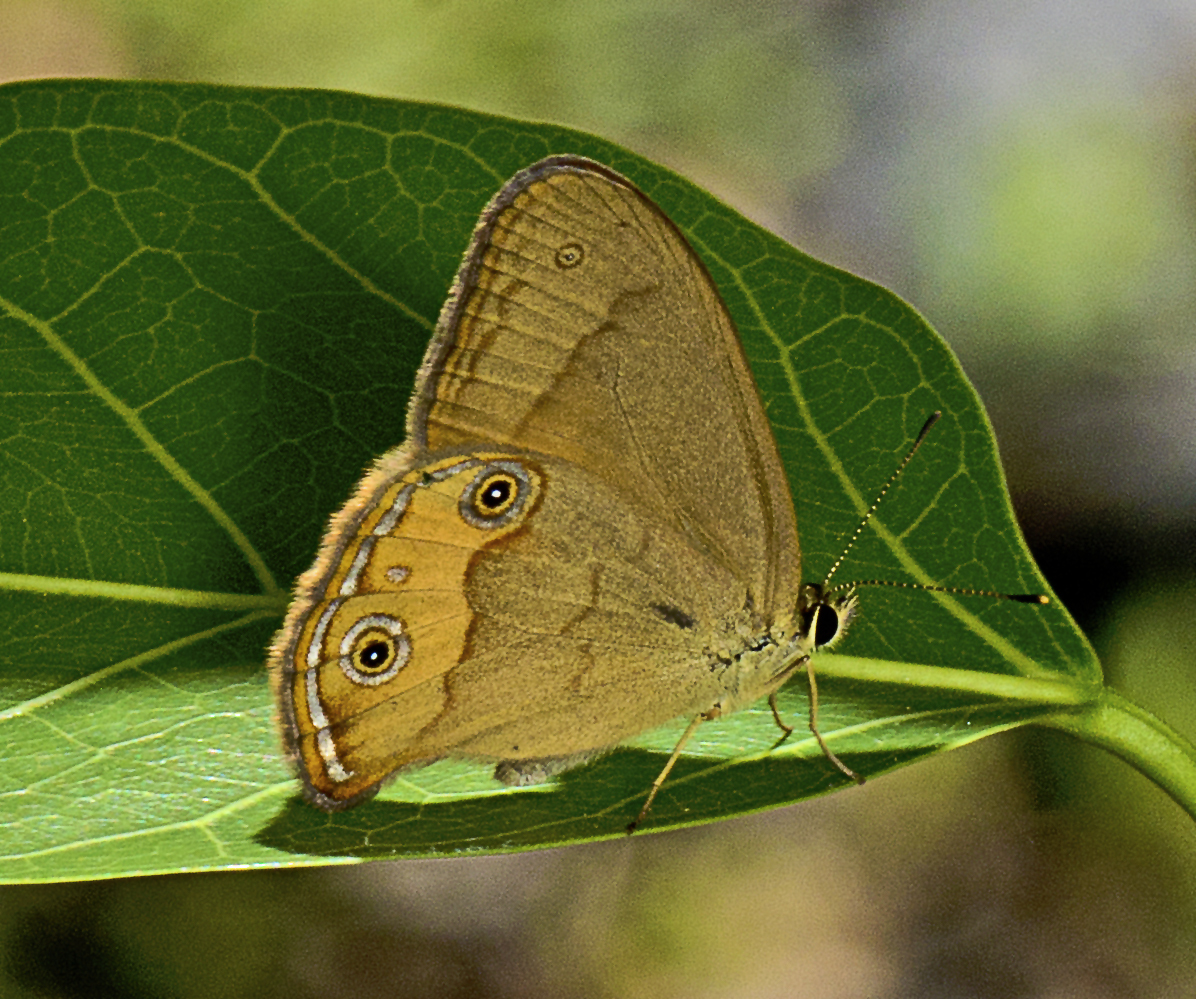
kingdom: Animalia
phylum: Arthropoda
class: Insecta
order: Lepidoptera
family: Nymphalidae
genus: Hypocysta
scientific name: Hypocysta metirius
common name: Brown ringlet
